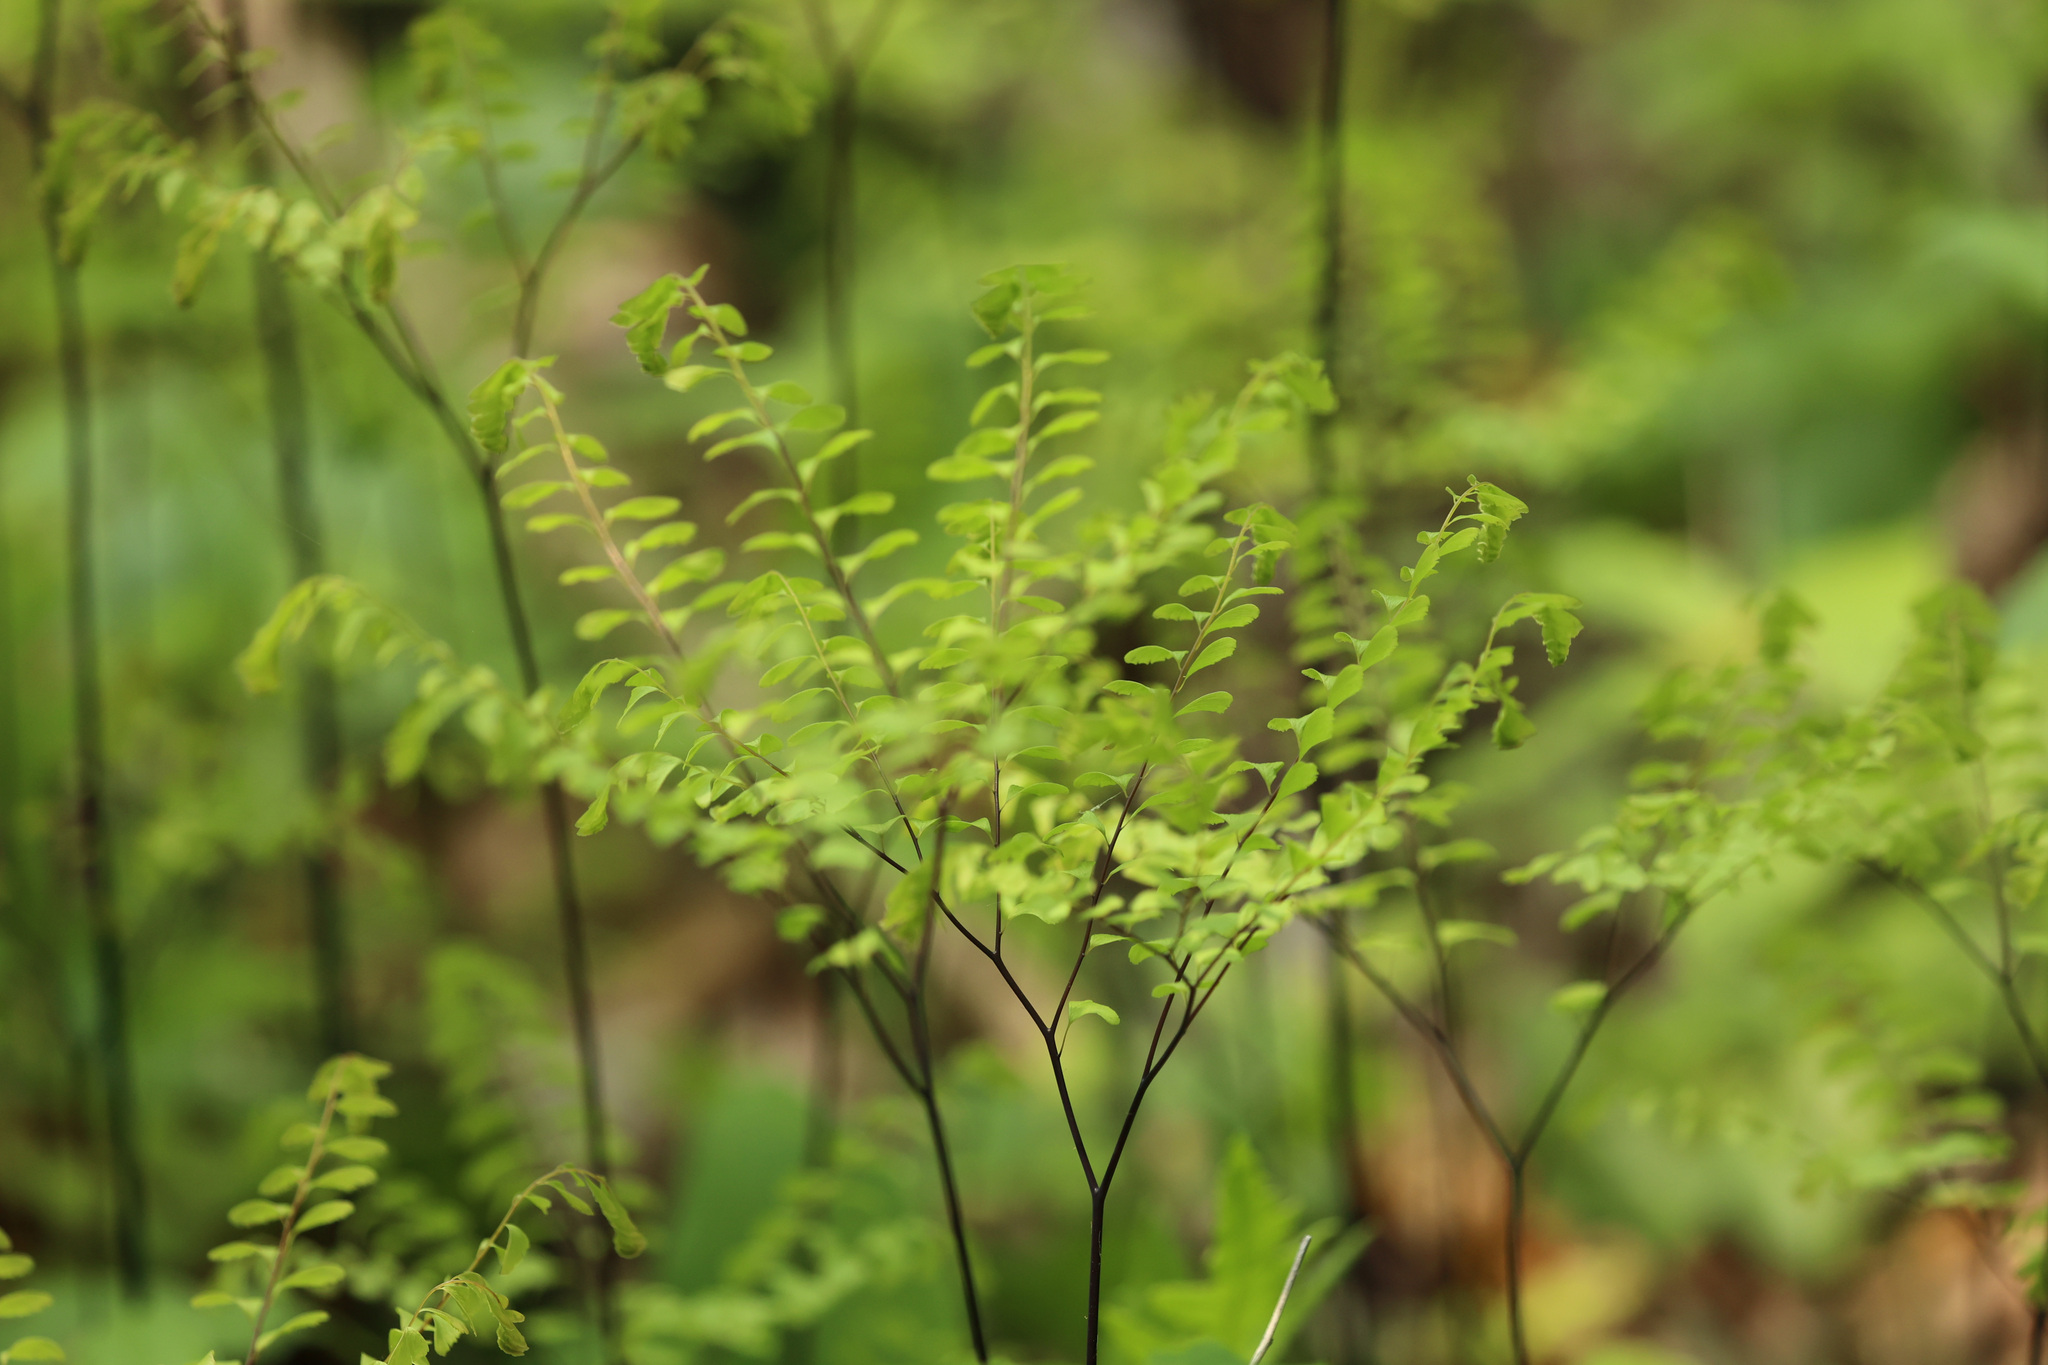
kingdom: Plantae
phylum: Tracheophyta
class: Polypodiopsida
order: Polypodiales
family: Pteridaceae
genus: Adiantum
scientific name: Adiantum pedatum
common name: Five-finger fern
